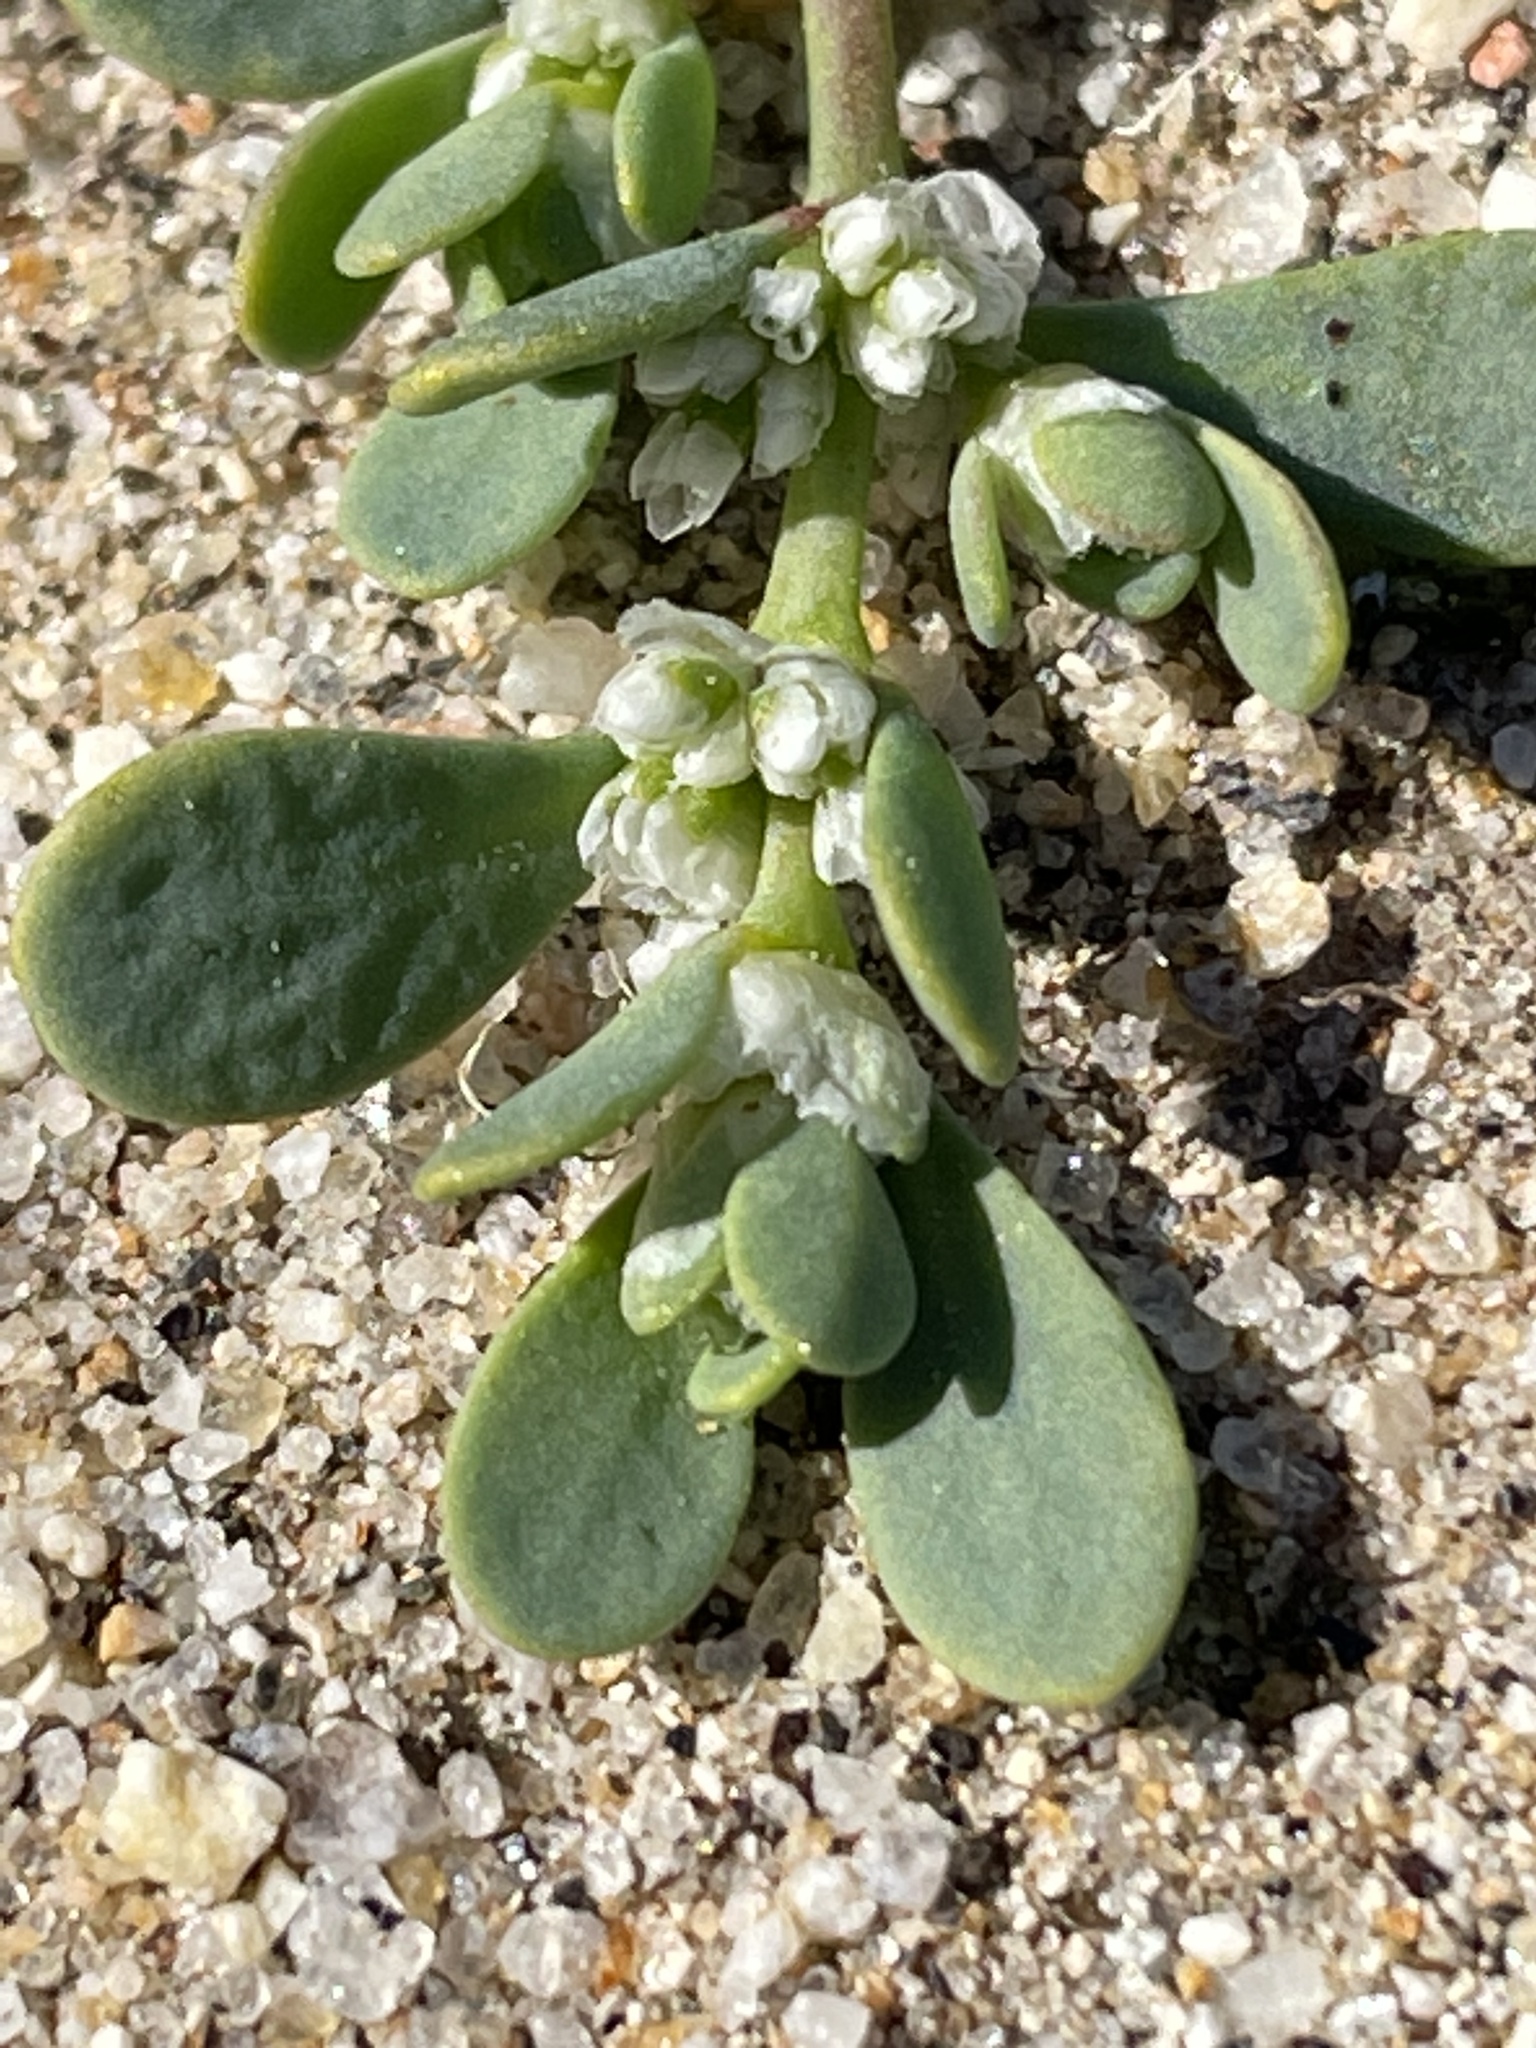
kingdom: Plantae
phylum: Tracheophyta
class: Magnoliopsida
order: Caryophyllales
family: Caryophyllaceae
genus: Achyronychia
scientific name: Achyronychia cooperi
